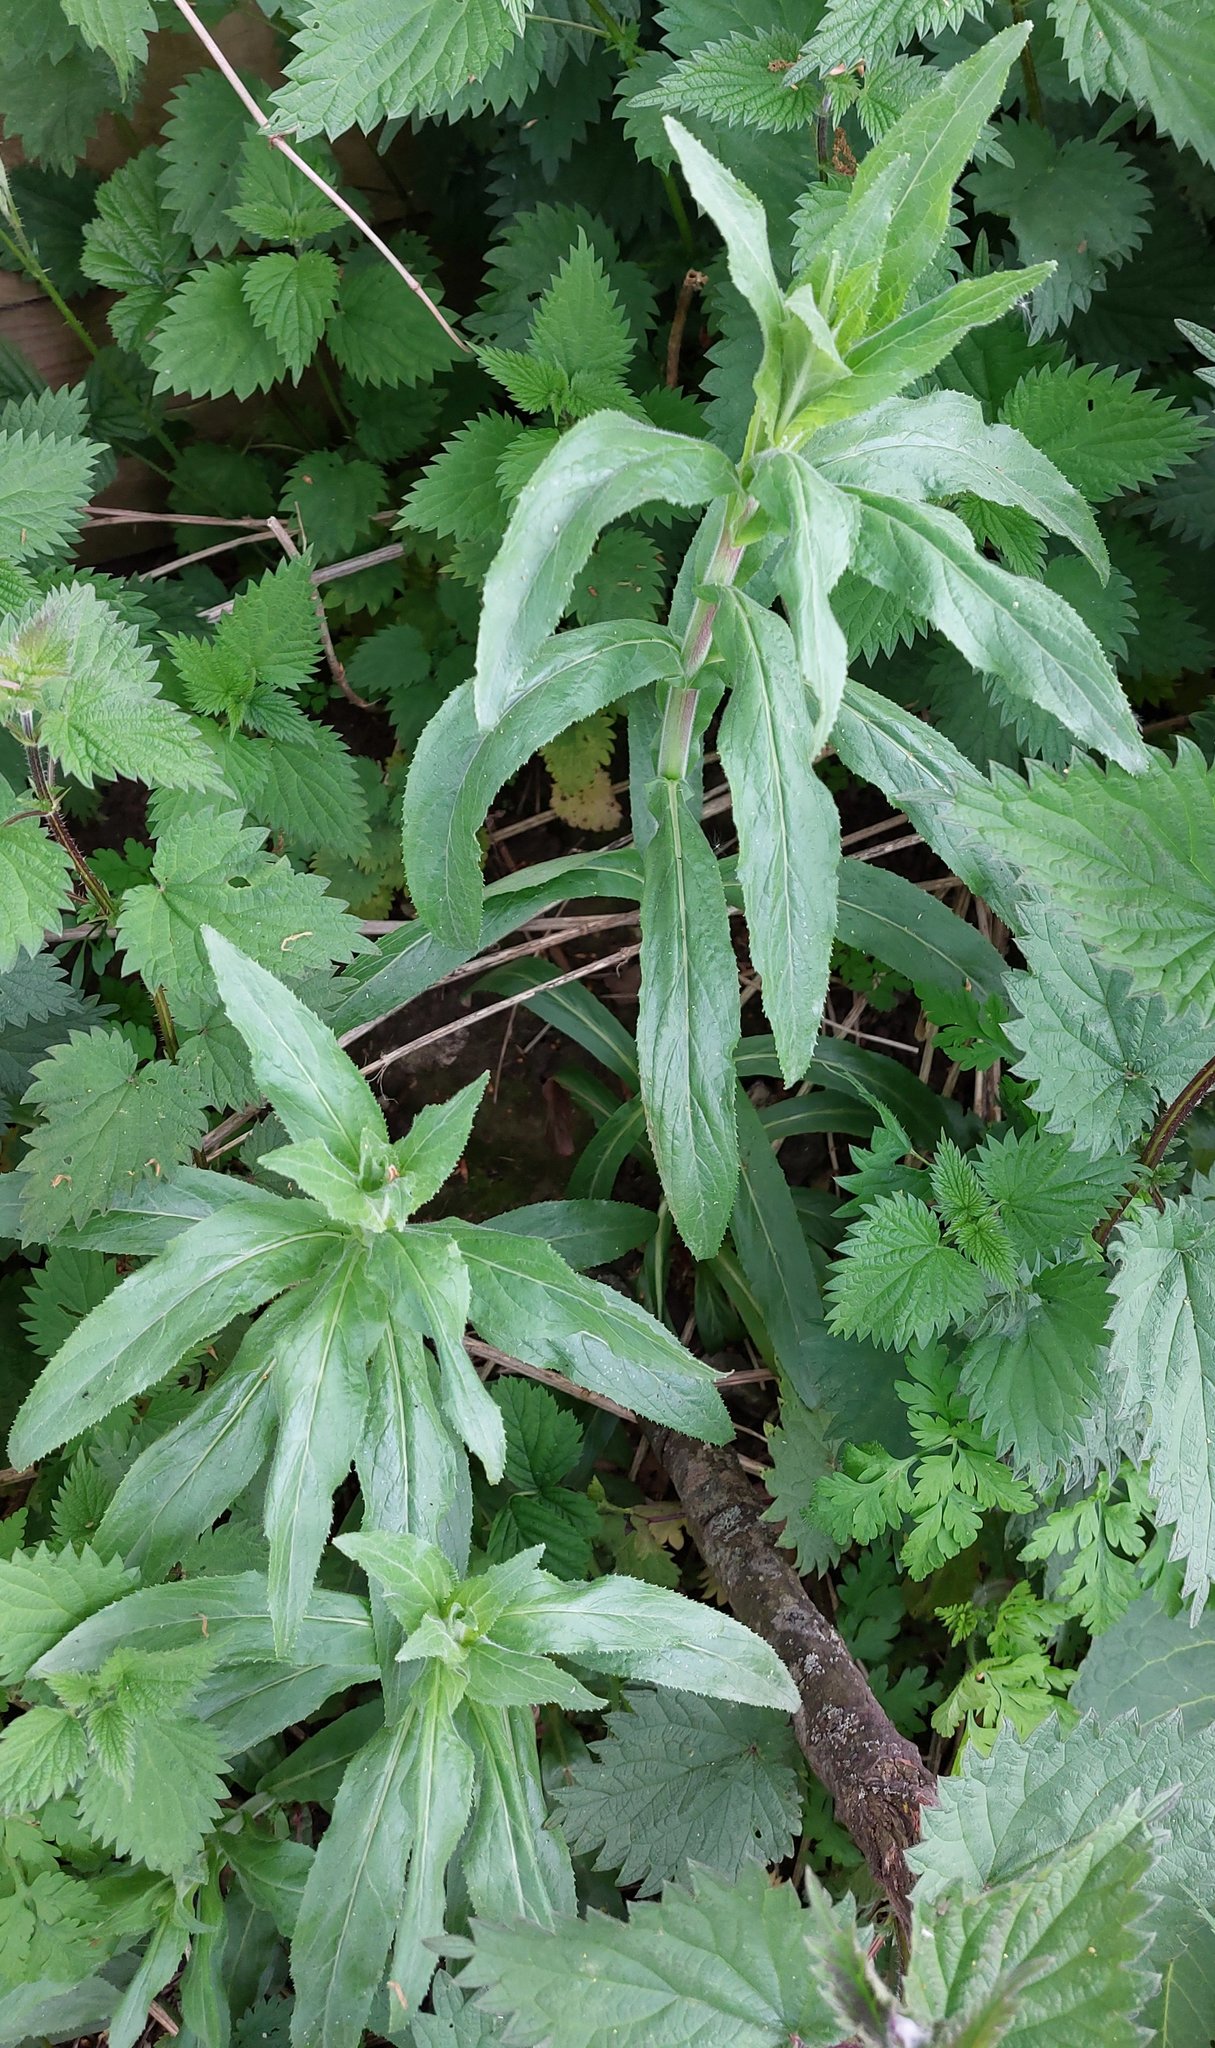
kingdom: Plantae
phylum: Tracheophyta
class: Magnoliopsida
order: Myrtales
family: Onagraceae
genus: Chamaenerion
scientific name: Chamaenerion angustifolium
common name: Fireweed
